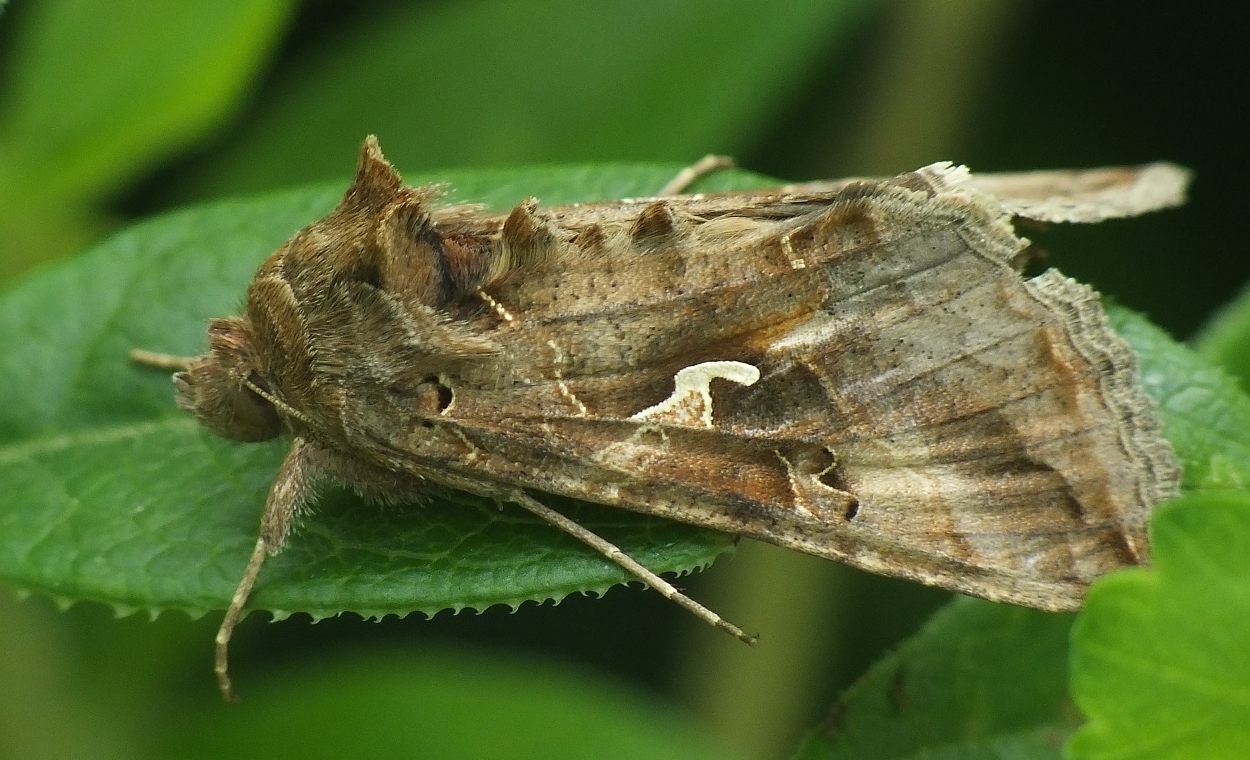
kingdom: Animalia
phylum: Arthropoda
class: Insecta
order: Lepidoptera
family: Noctuidae
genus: Autographa
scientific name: Autographa gamma
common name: Silver y
